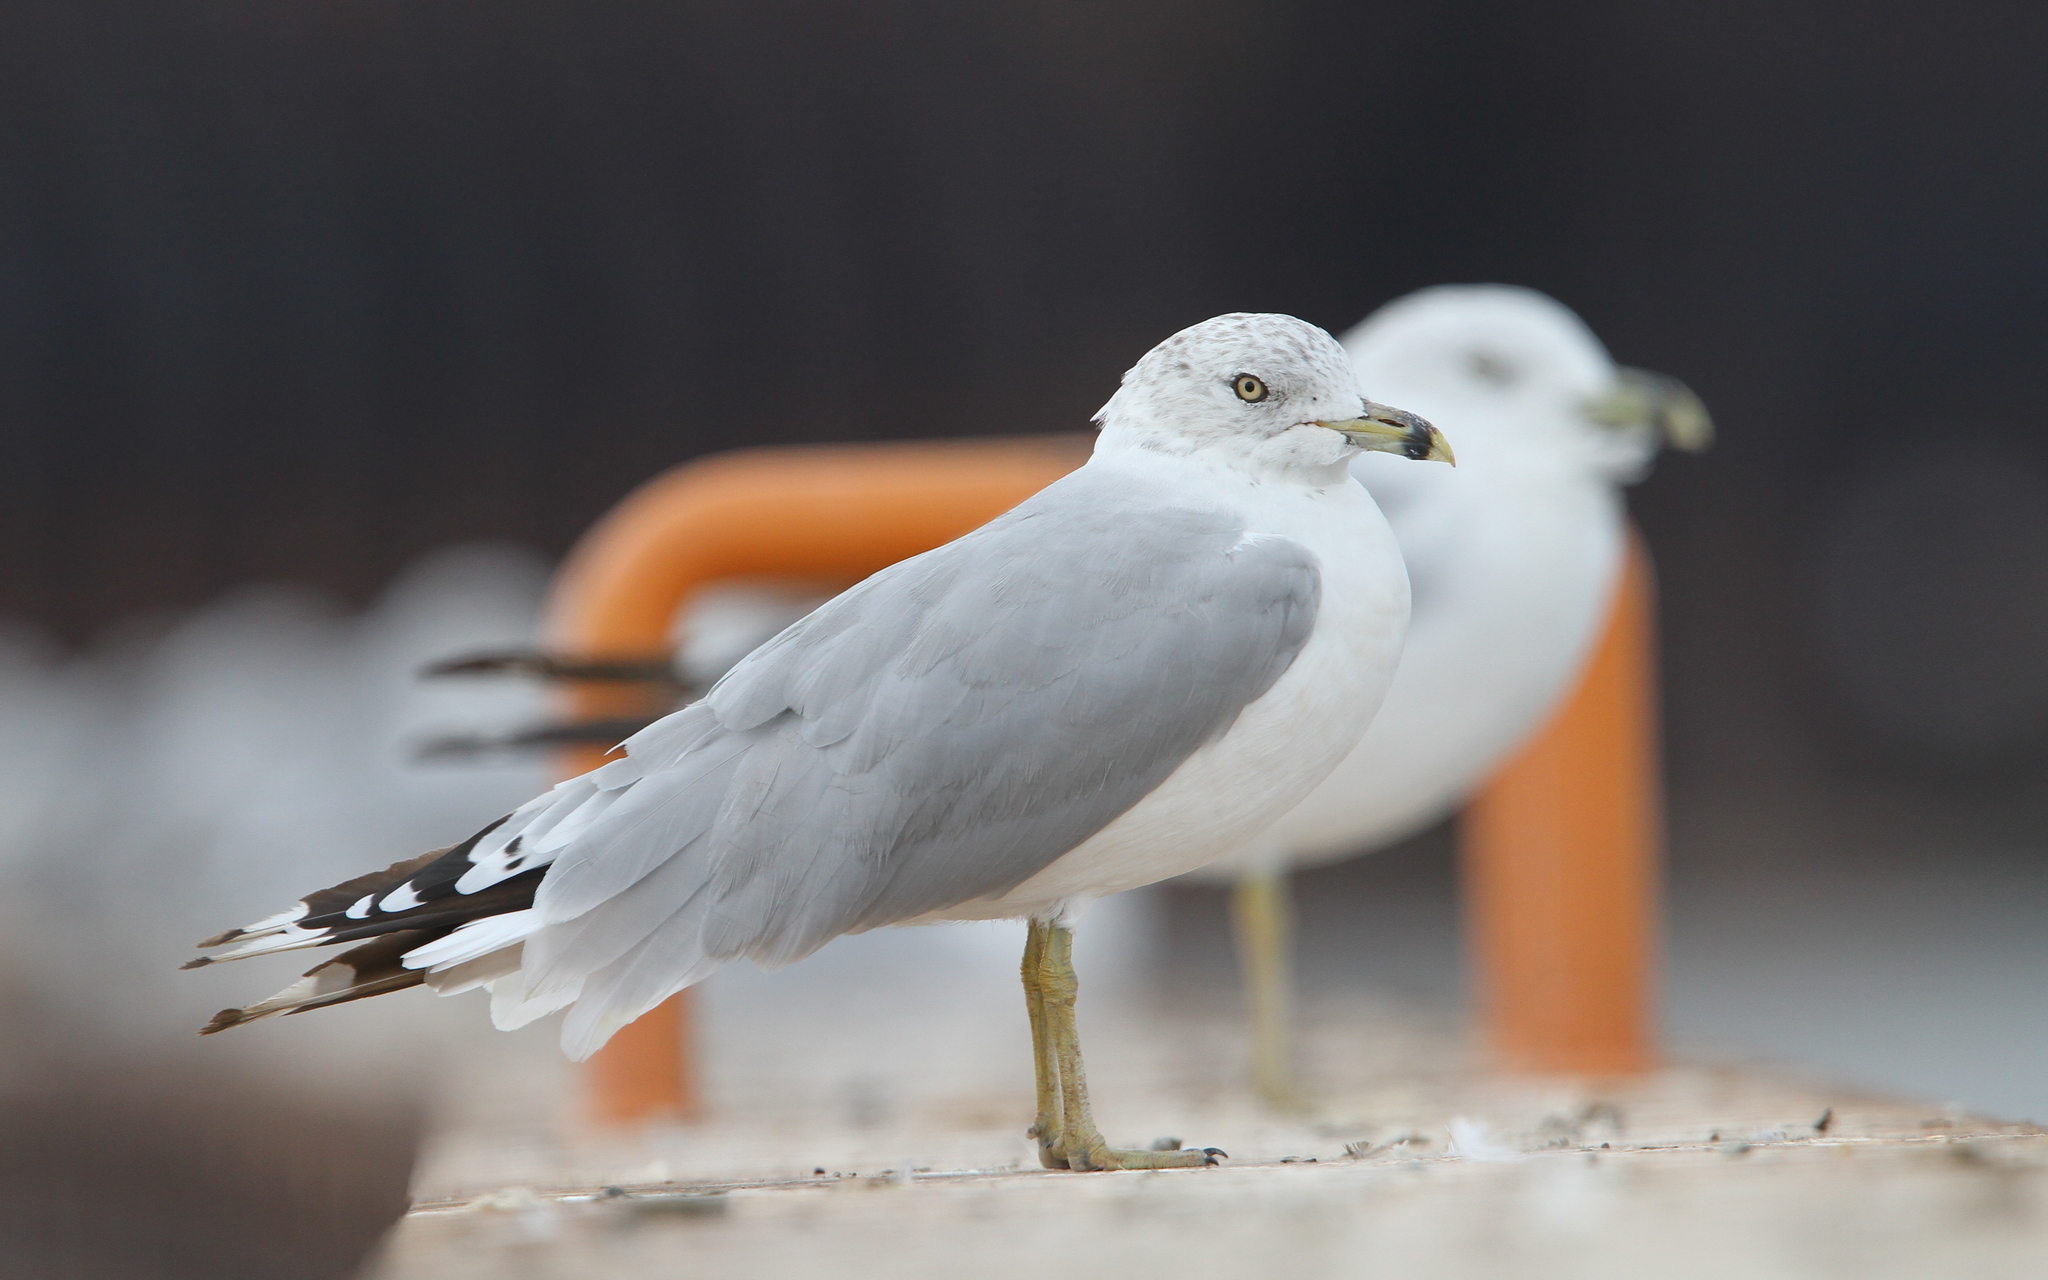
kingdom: Animalia
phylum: Chordata
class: Aves
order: Charadriiformes
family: Laridae
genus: Larus
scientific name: Larus delawarensis
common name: Ring-billed gull
